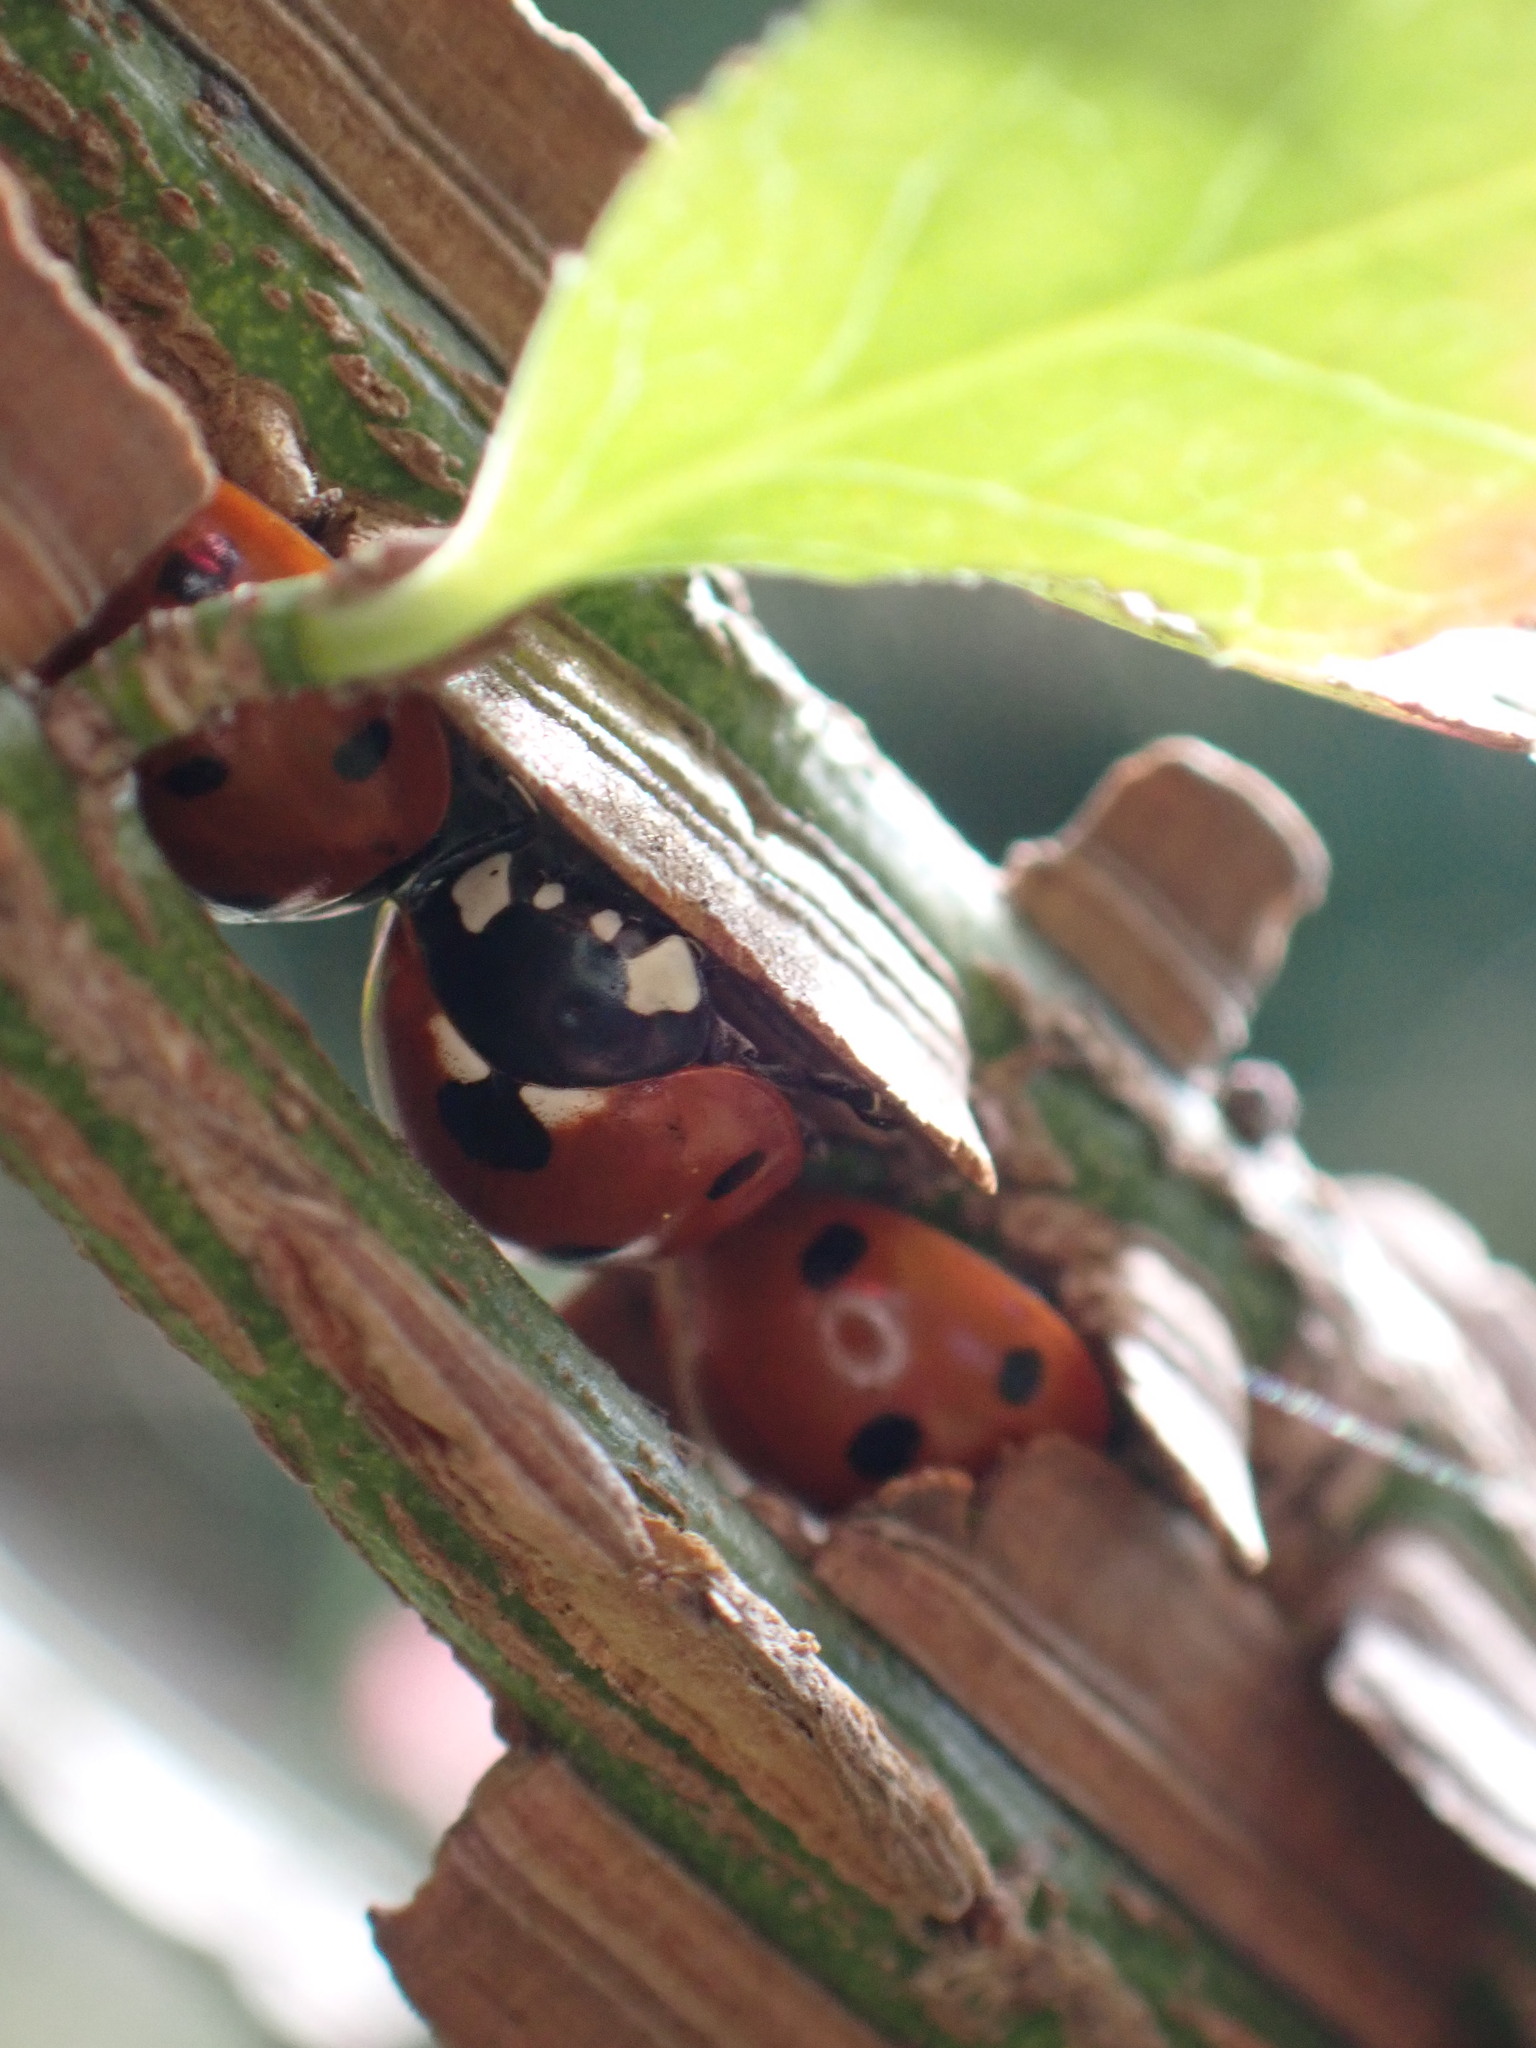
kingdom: Animalia
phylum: Arthropoda
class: Insecta
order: Coleoptera
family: Coccinellidae
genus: Coccinella
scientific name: Coccinella septempunctata
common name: Sevenspotted lady beetle
